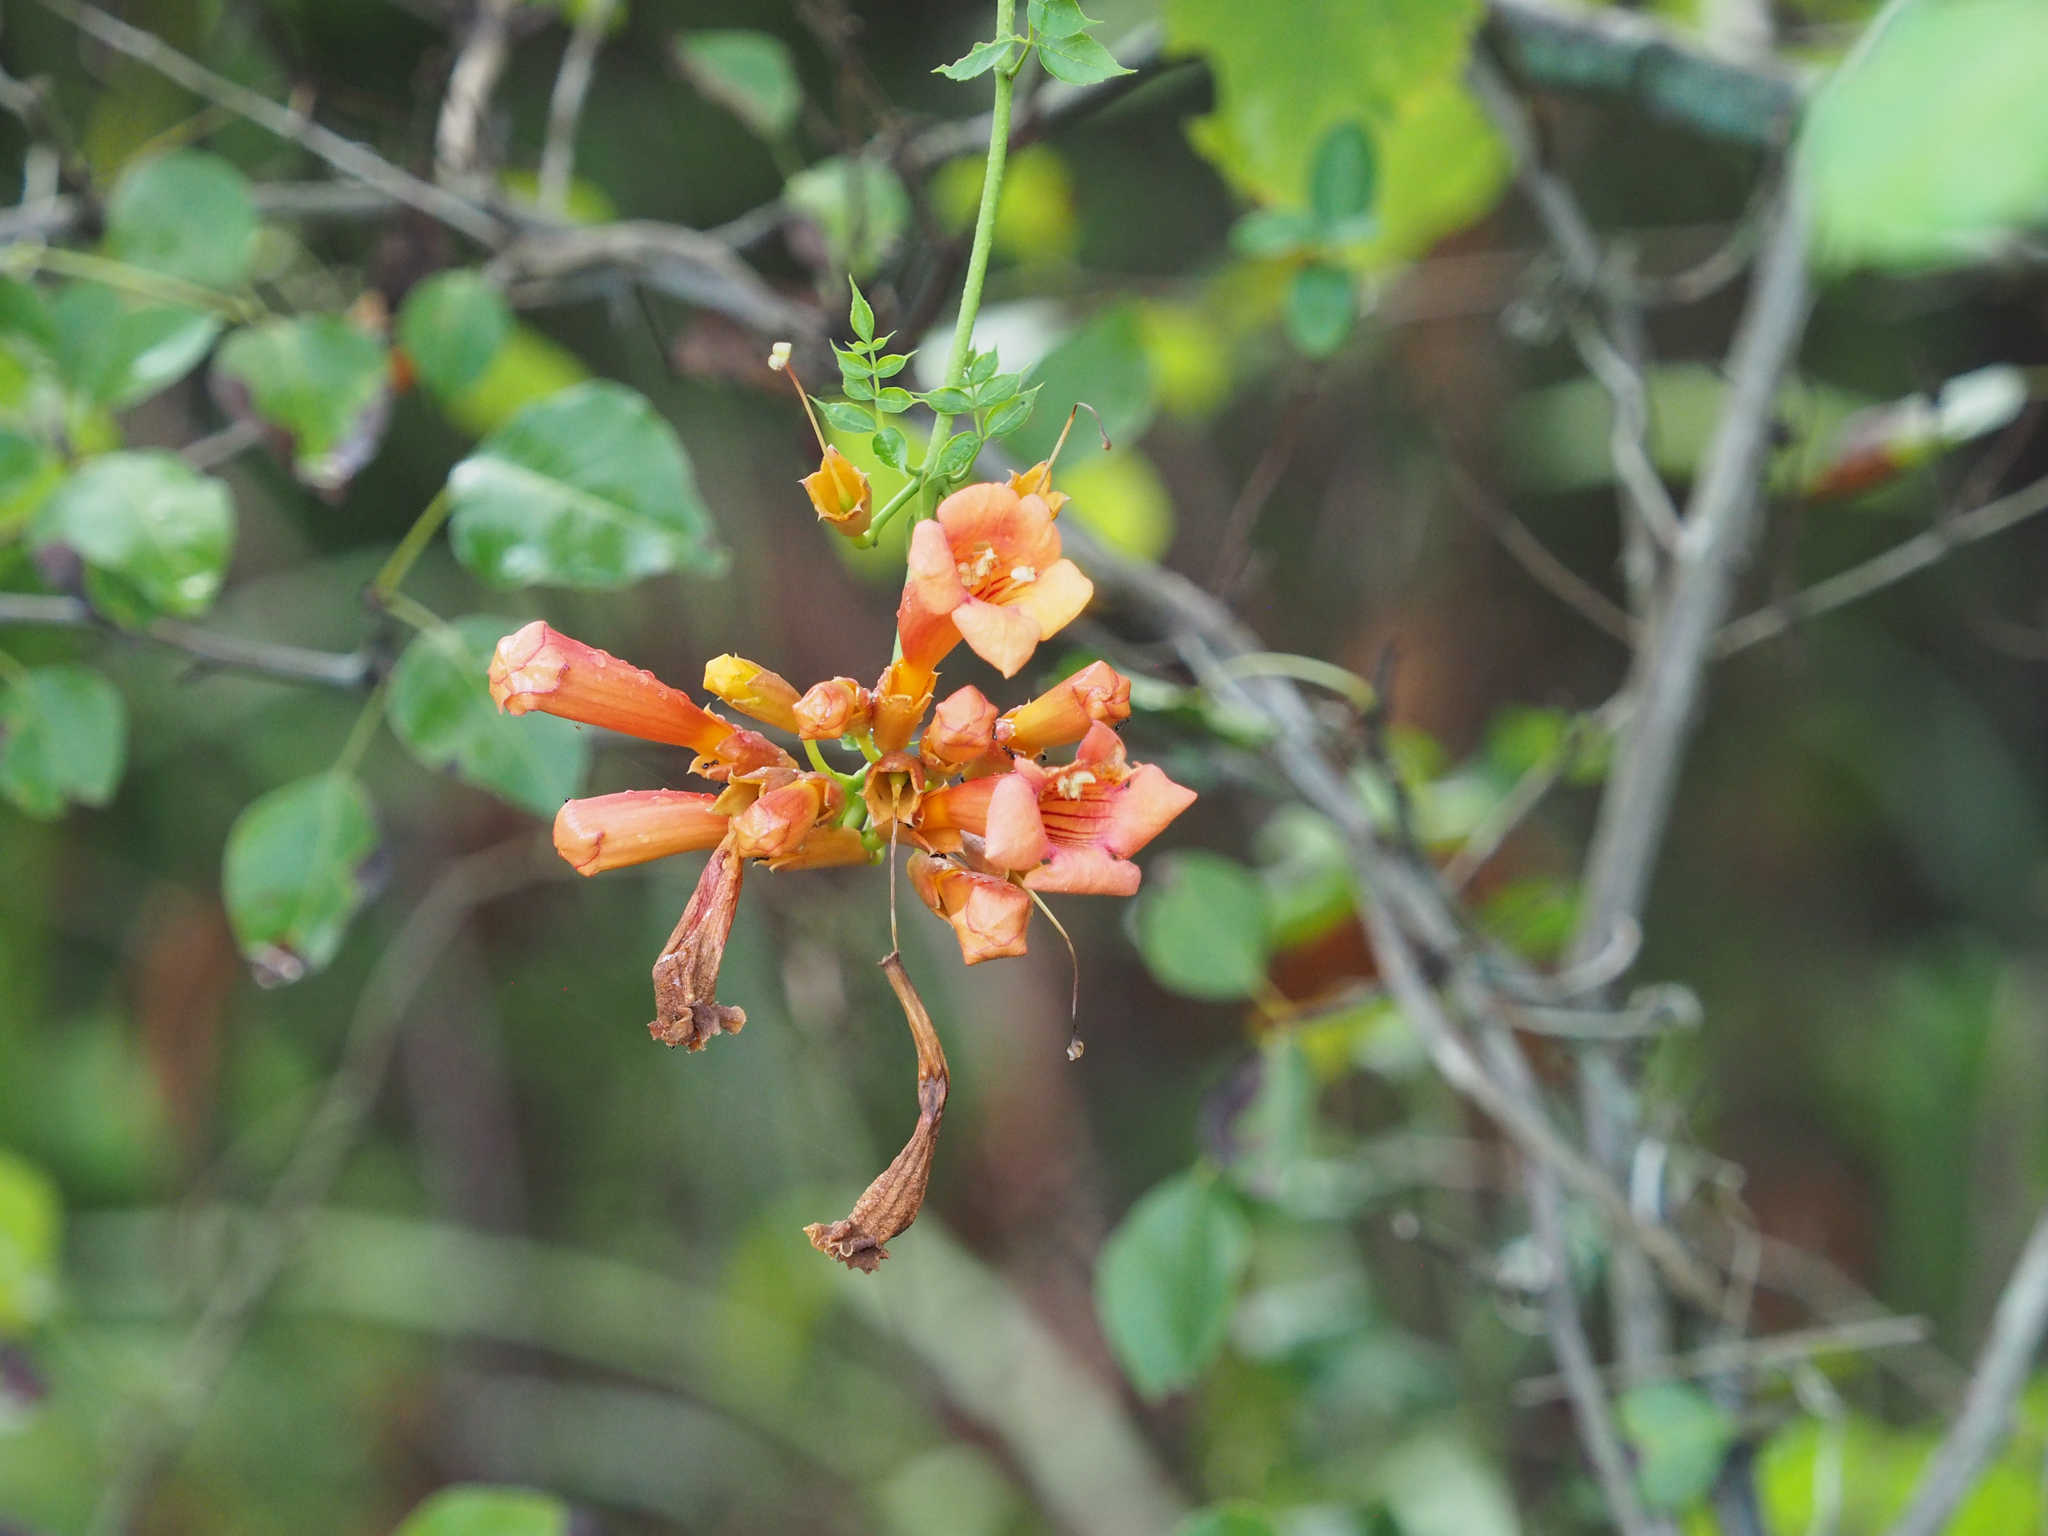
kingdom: Plantae
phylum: Tracheophyta
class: Magnoliopsida
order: Lamiales
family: Bignoniaceae
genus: Campsis
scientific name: Campsis radicans
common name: Trumpet-creeper
